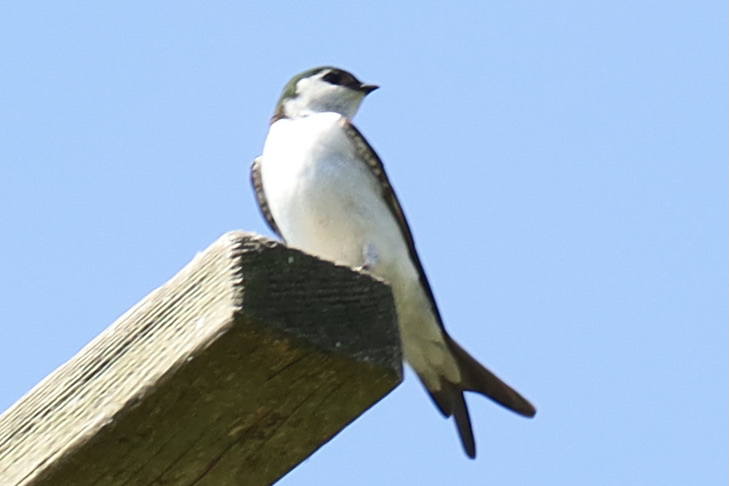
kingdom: Animalia
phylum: Chordata
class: Aves
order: Passeriformes
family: Hirundinidae
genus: Tachycineta
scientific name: Tachycineta thalassina
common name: Violet-green swallow
